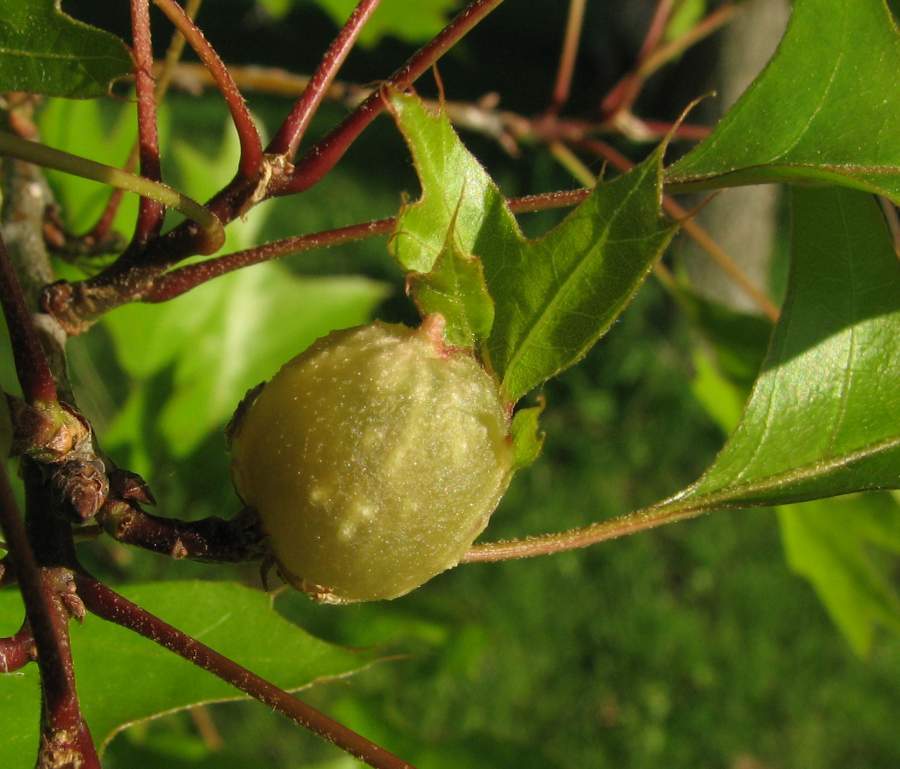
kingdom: Animalia
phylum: Arthropoda
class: Insecta
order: Hymenoptera
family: Cynipidae
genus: Dryocosmus
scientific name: Dryocosmus quercuspalustris
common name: Succulent oak gall wasp
